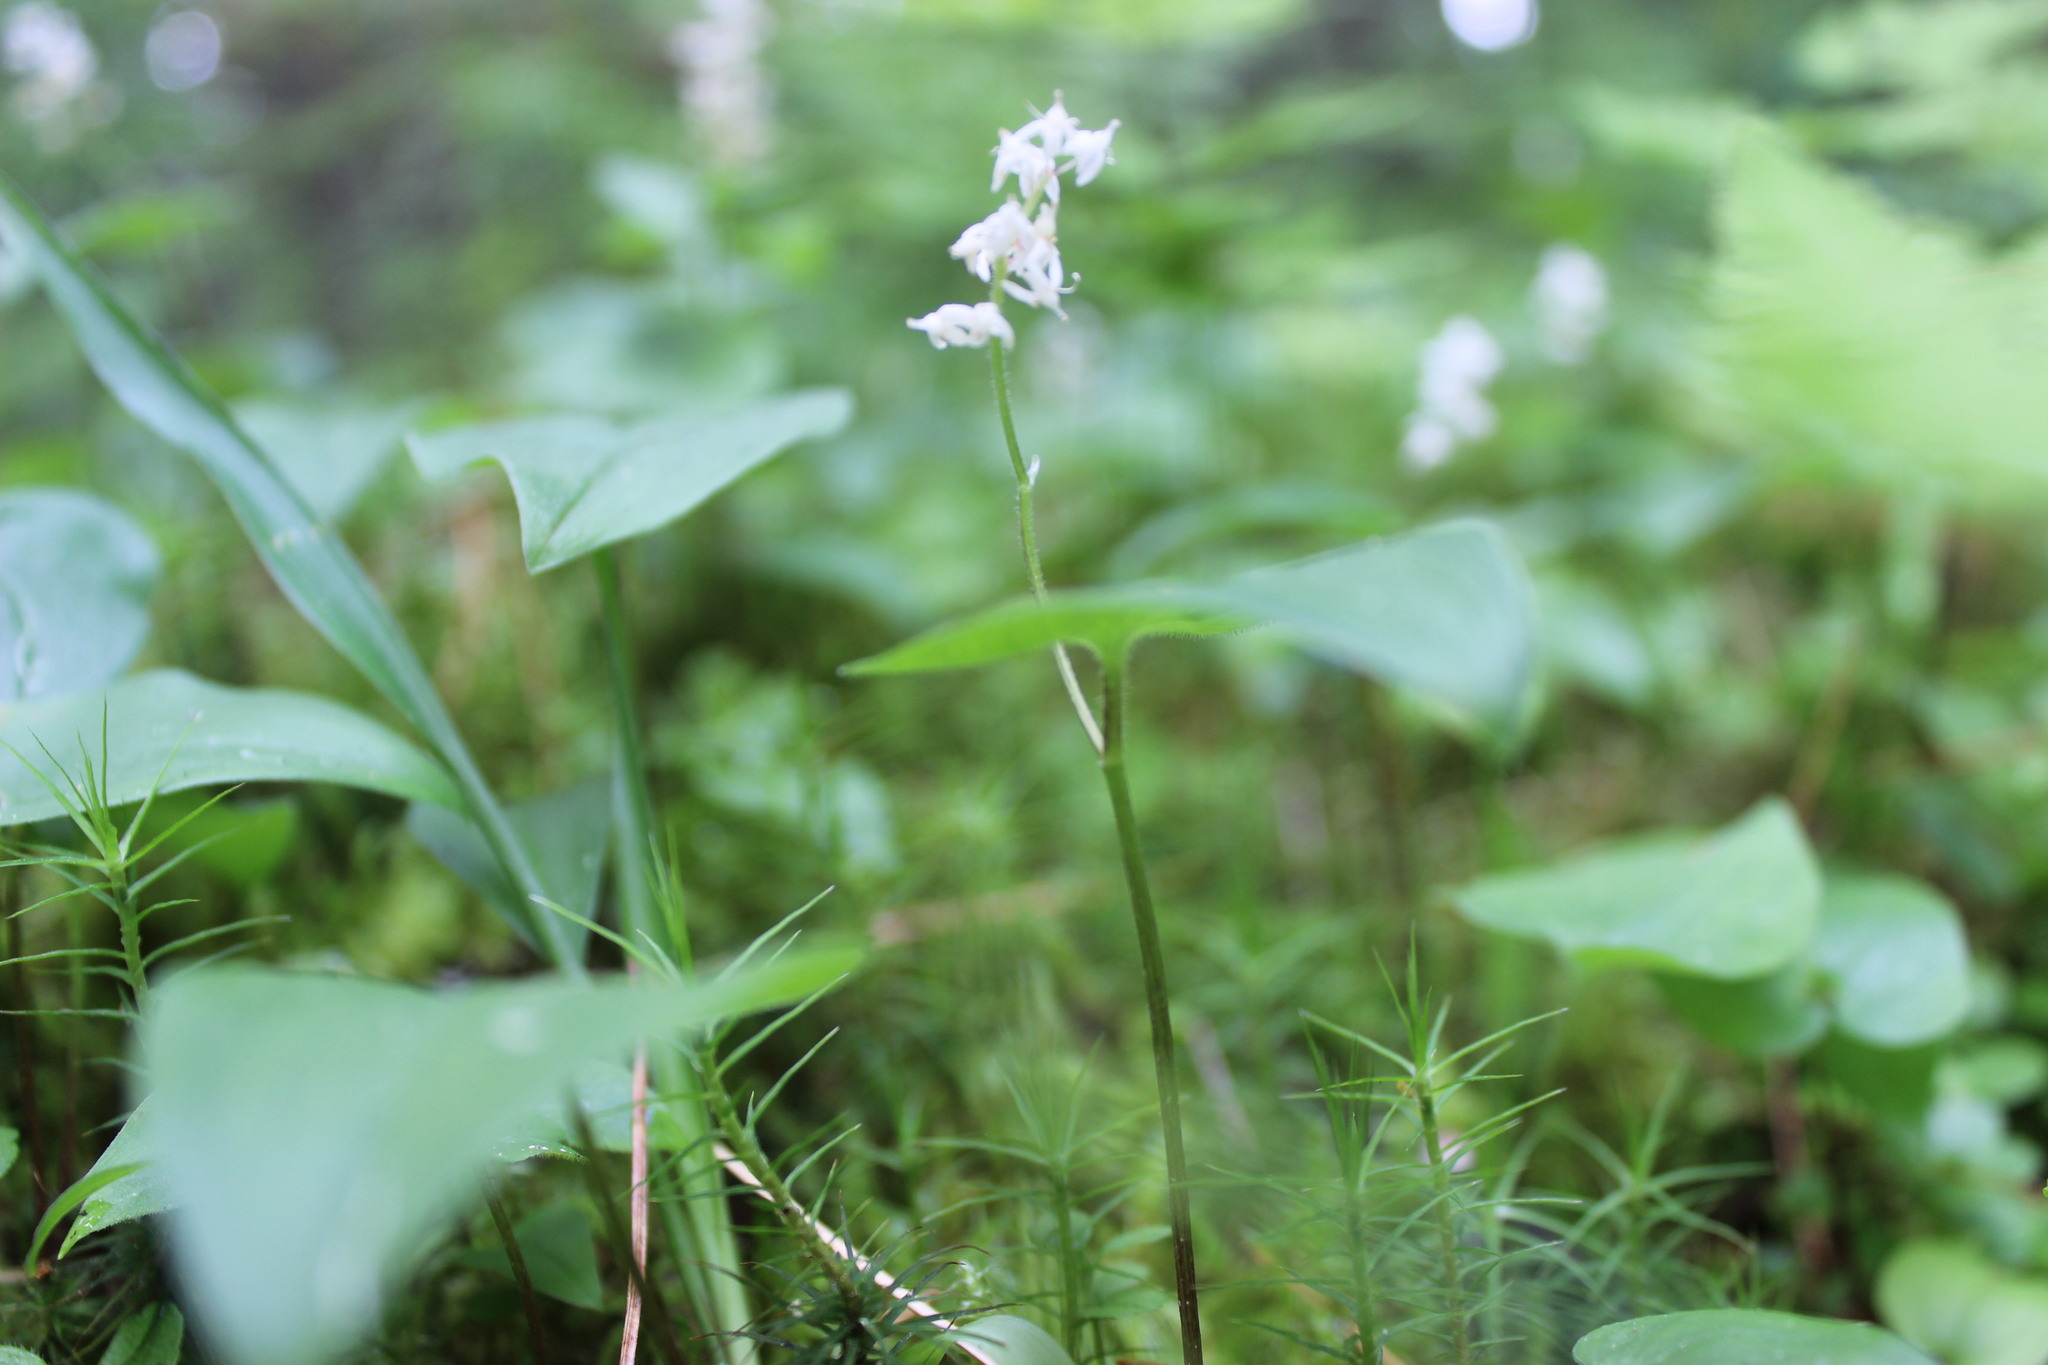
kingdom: Plantae
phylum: Tracheophyta
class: Liliopsida
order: Asparagales
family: Asparagaceae
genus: Maianthemum
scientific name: Maianthemum bifolium
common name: May lily
